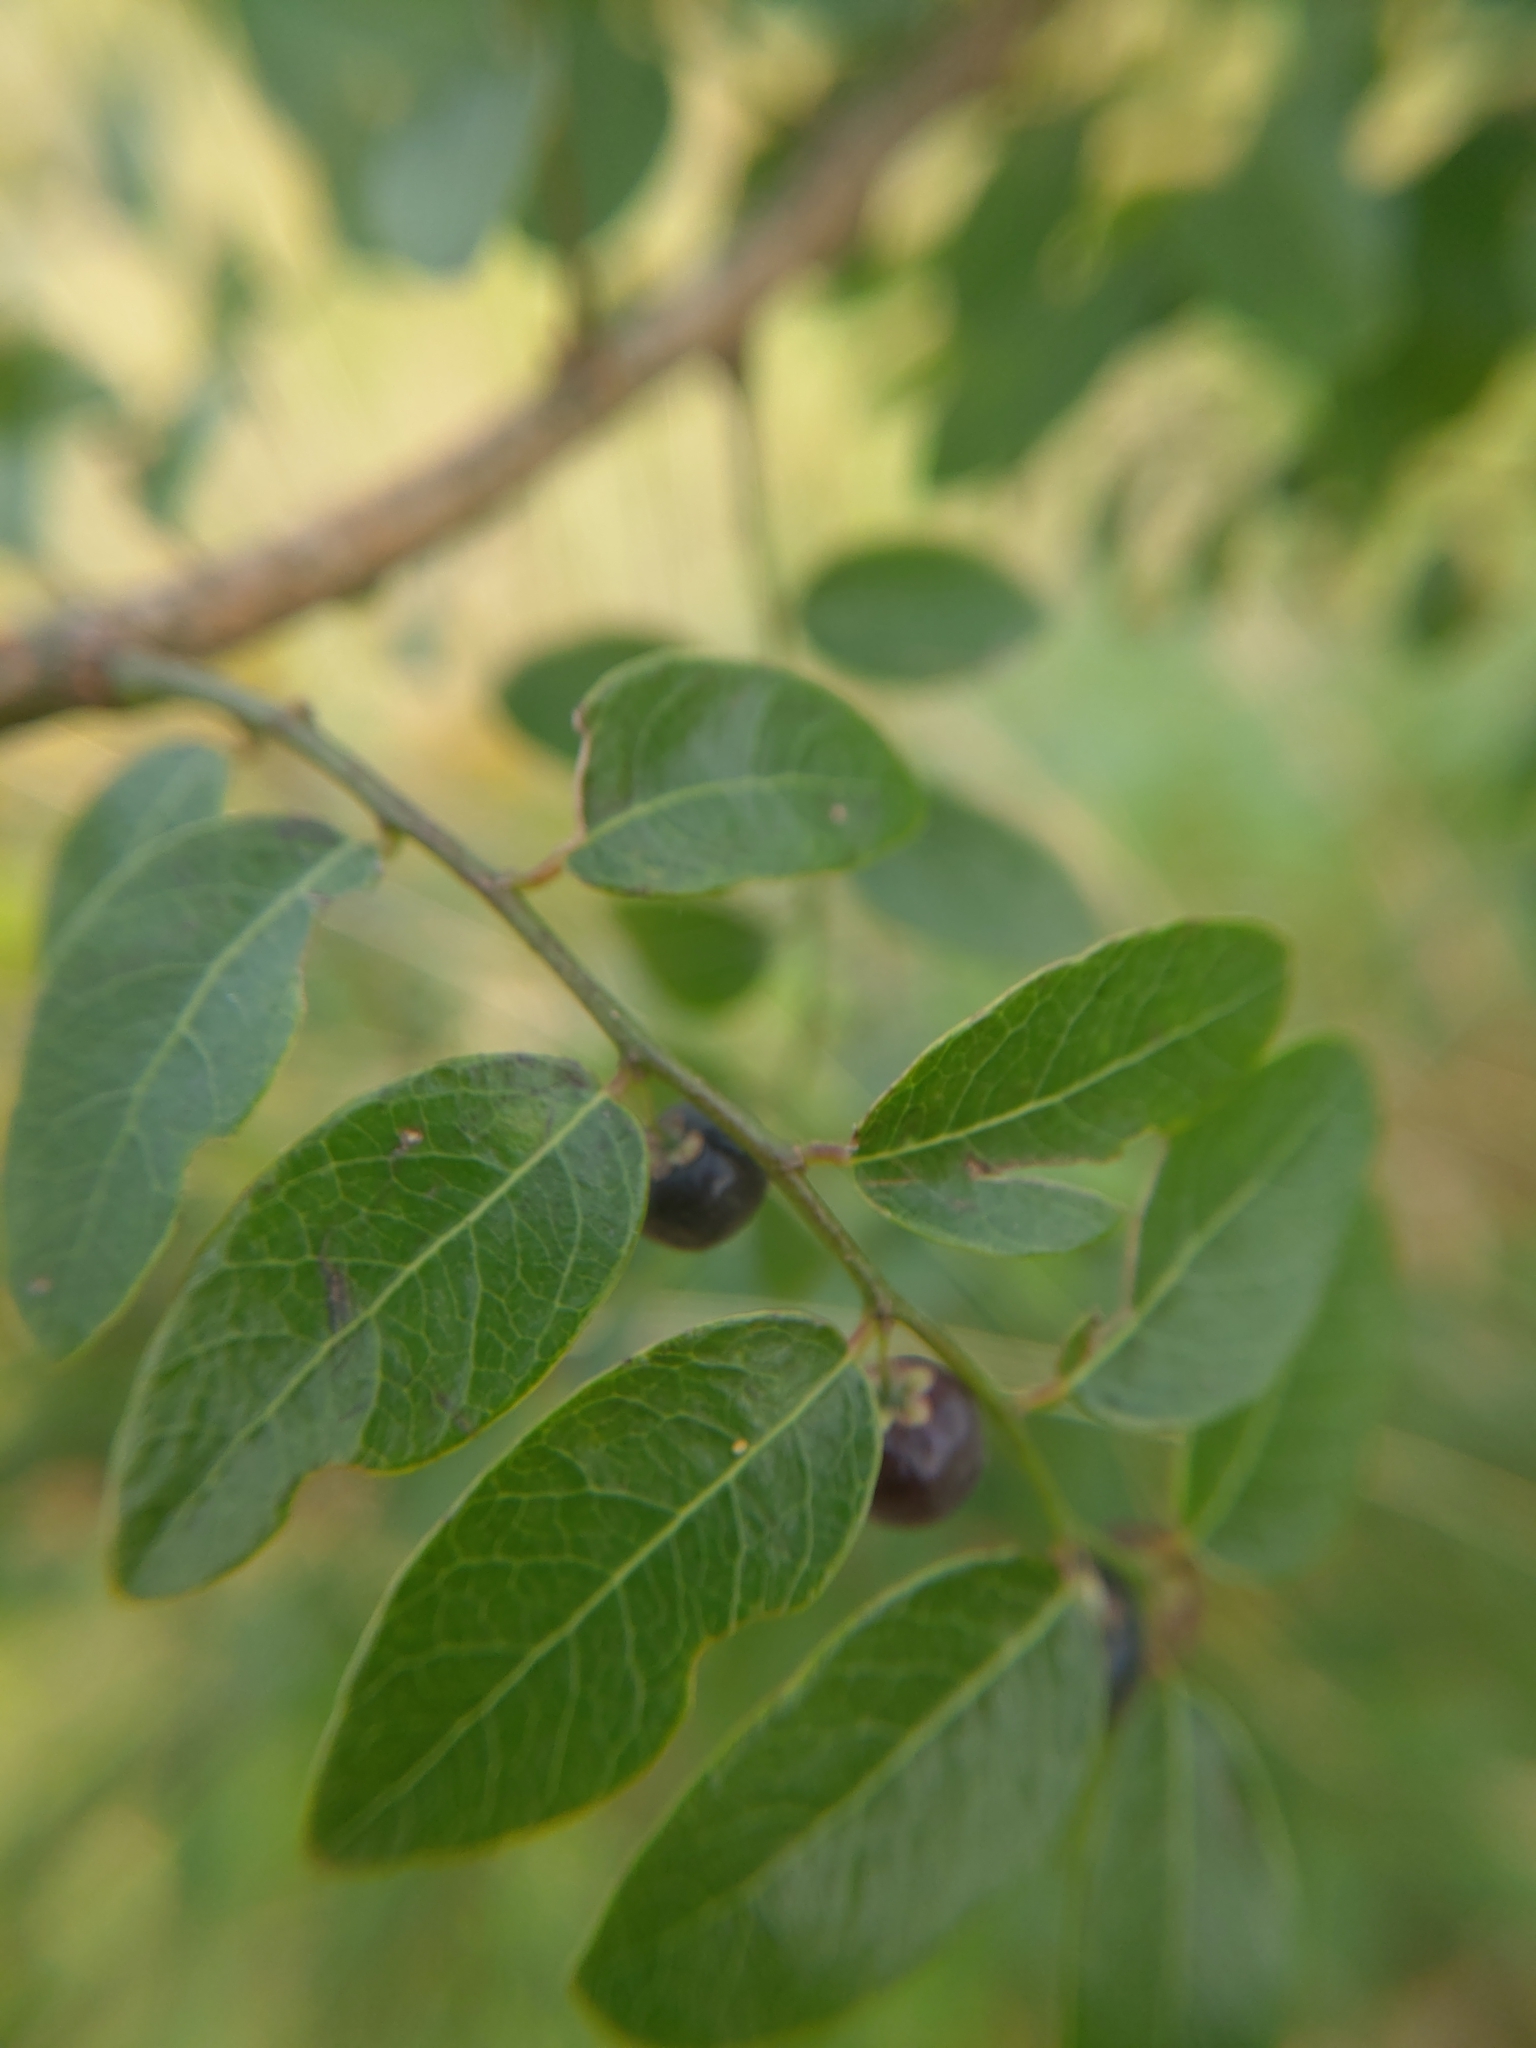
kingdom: Plantae
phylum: Tracheophyta
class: Magnoliopsida
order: Malpighiales
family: Phyllanthaceae
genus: Phyllanthus
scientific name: Phyllanthus reticulatus
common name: Potato bush
